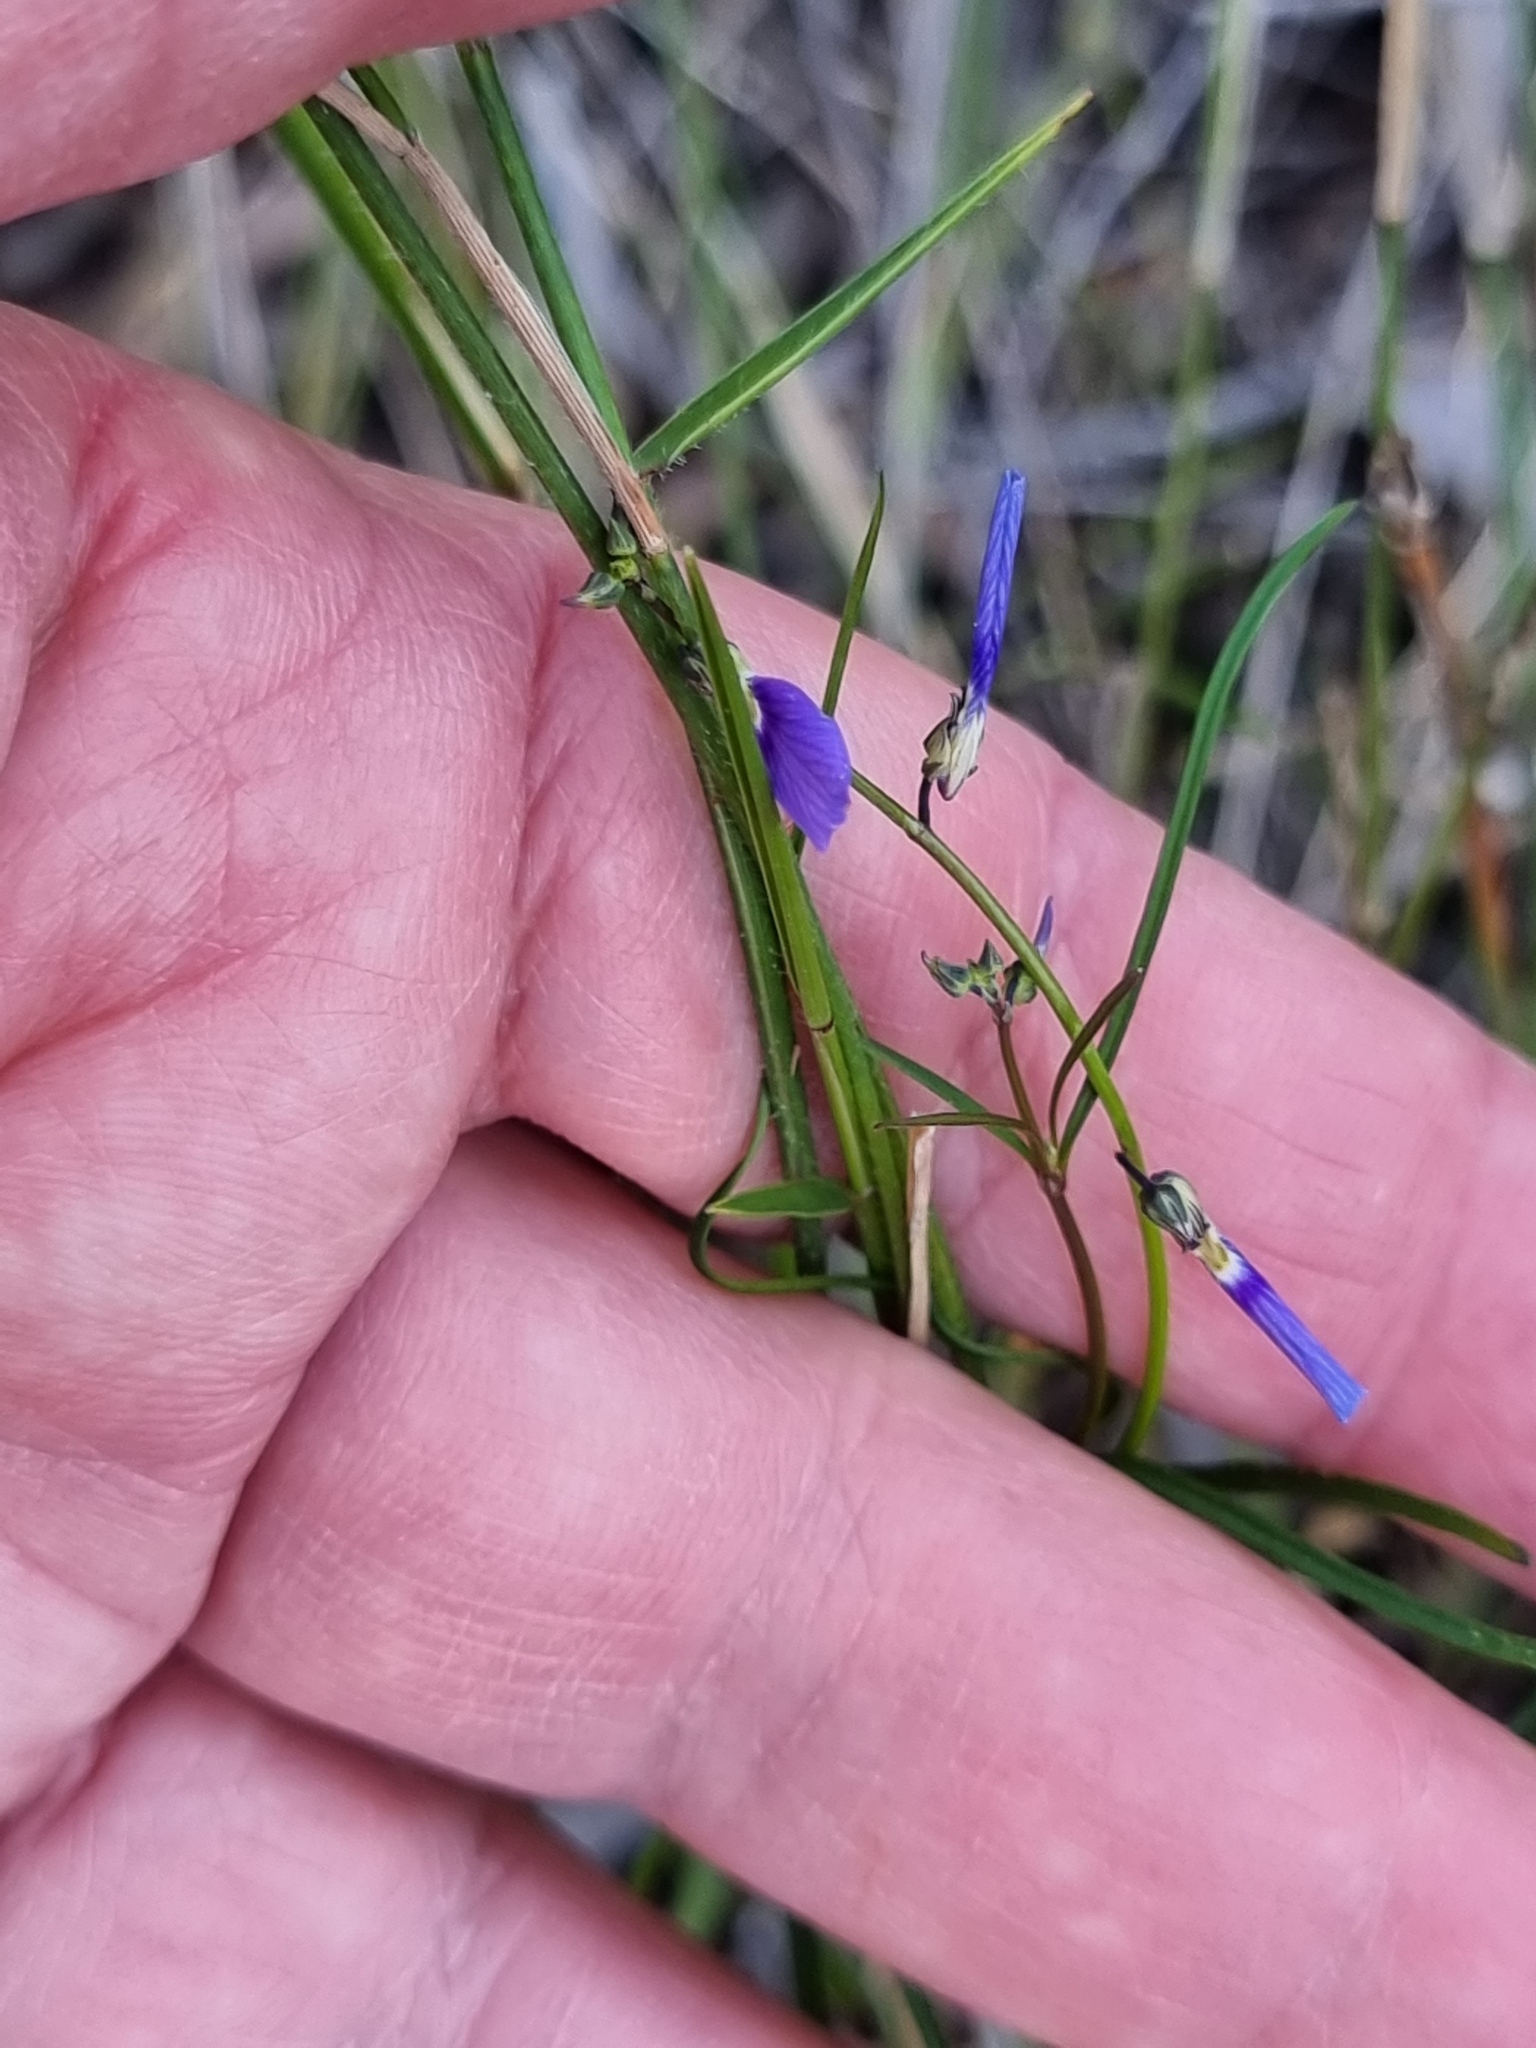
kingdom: Plantae
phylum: Tracheophyta
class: Magnoliopsida
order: Malpighiales
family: Violaceae
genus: Pigea
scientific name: Pigea monopetala
